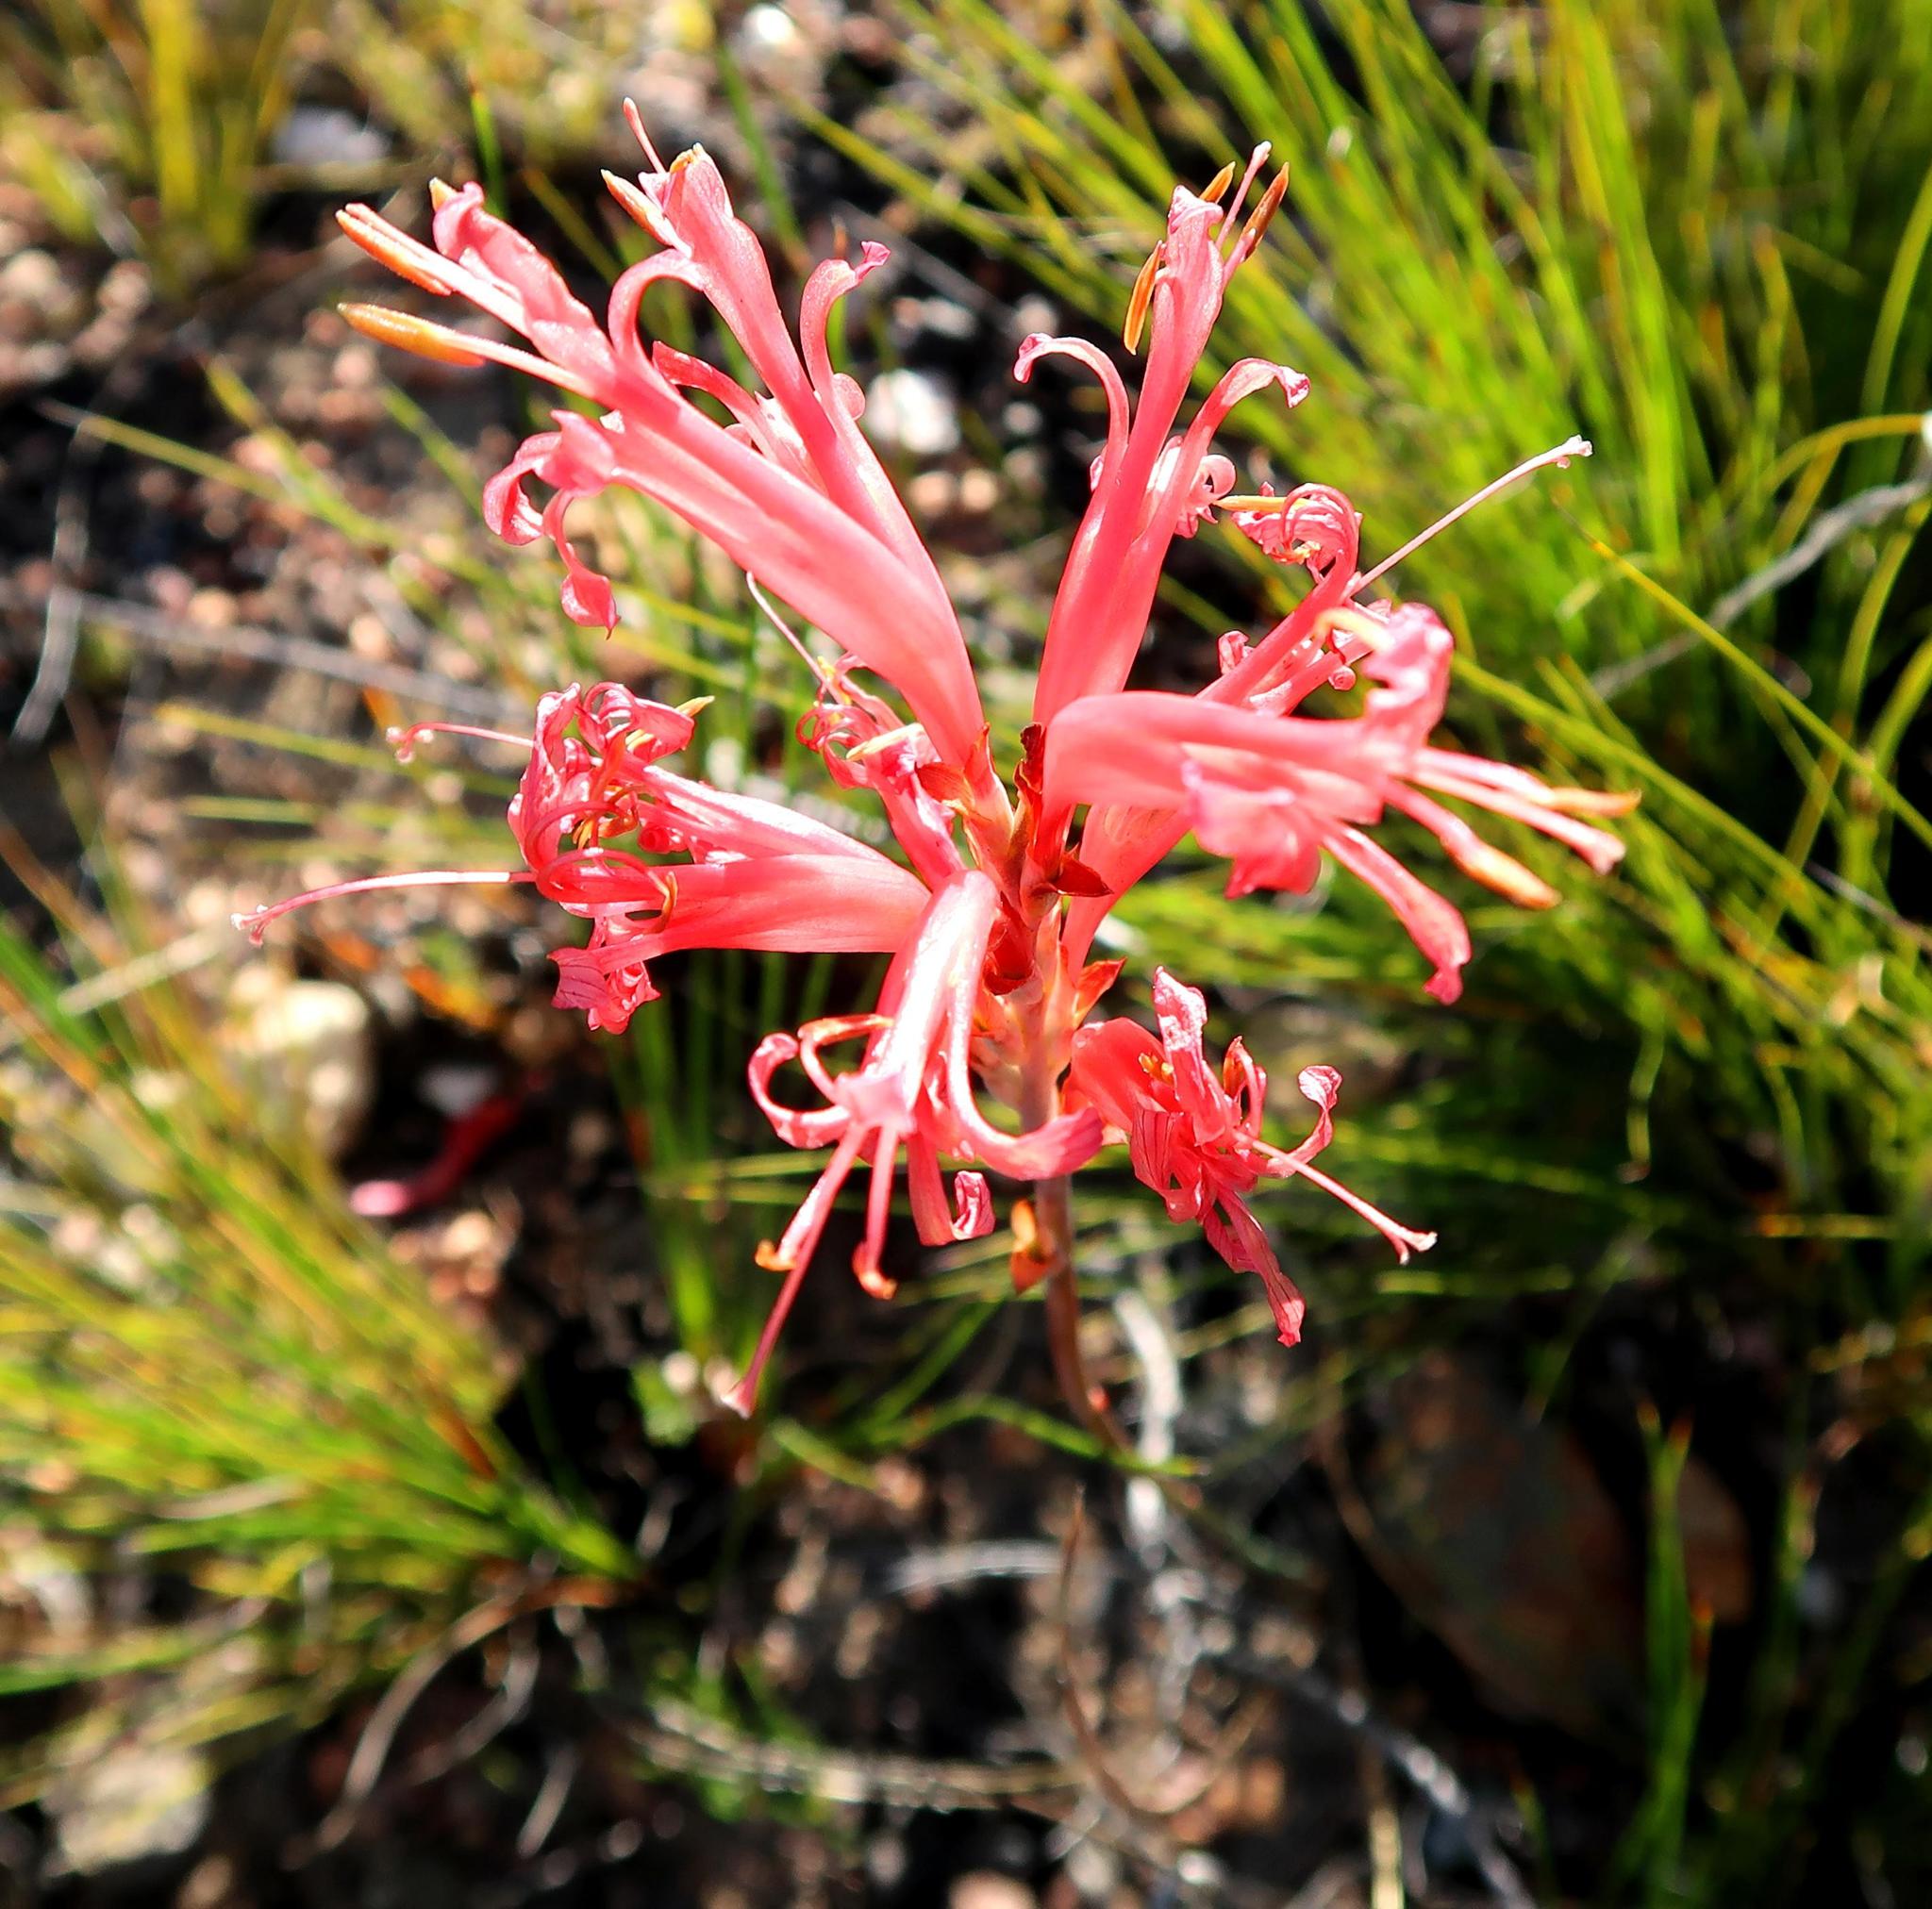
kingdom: Plantae
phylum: Tracheophyta
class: Liliopsida
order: Asparagales
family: Iridaceae
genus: Tritoniopsis
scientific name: Tritoniopsis antholyza
